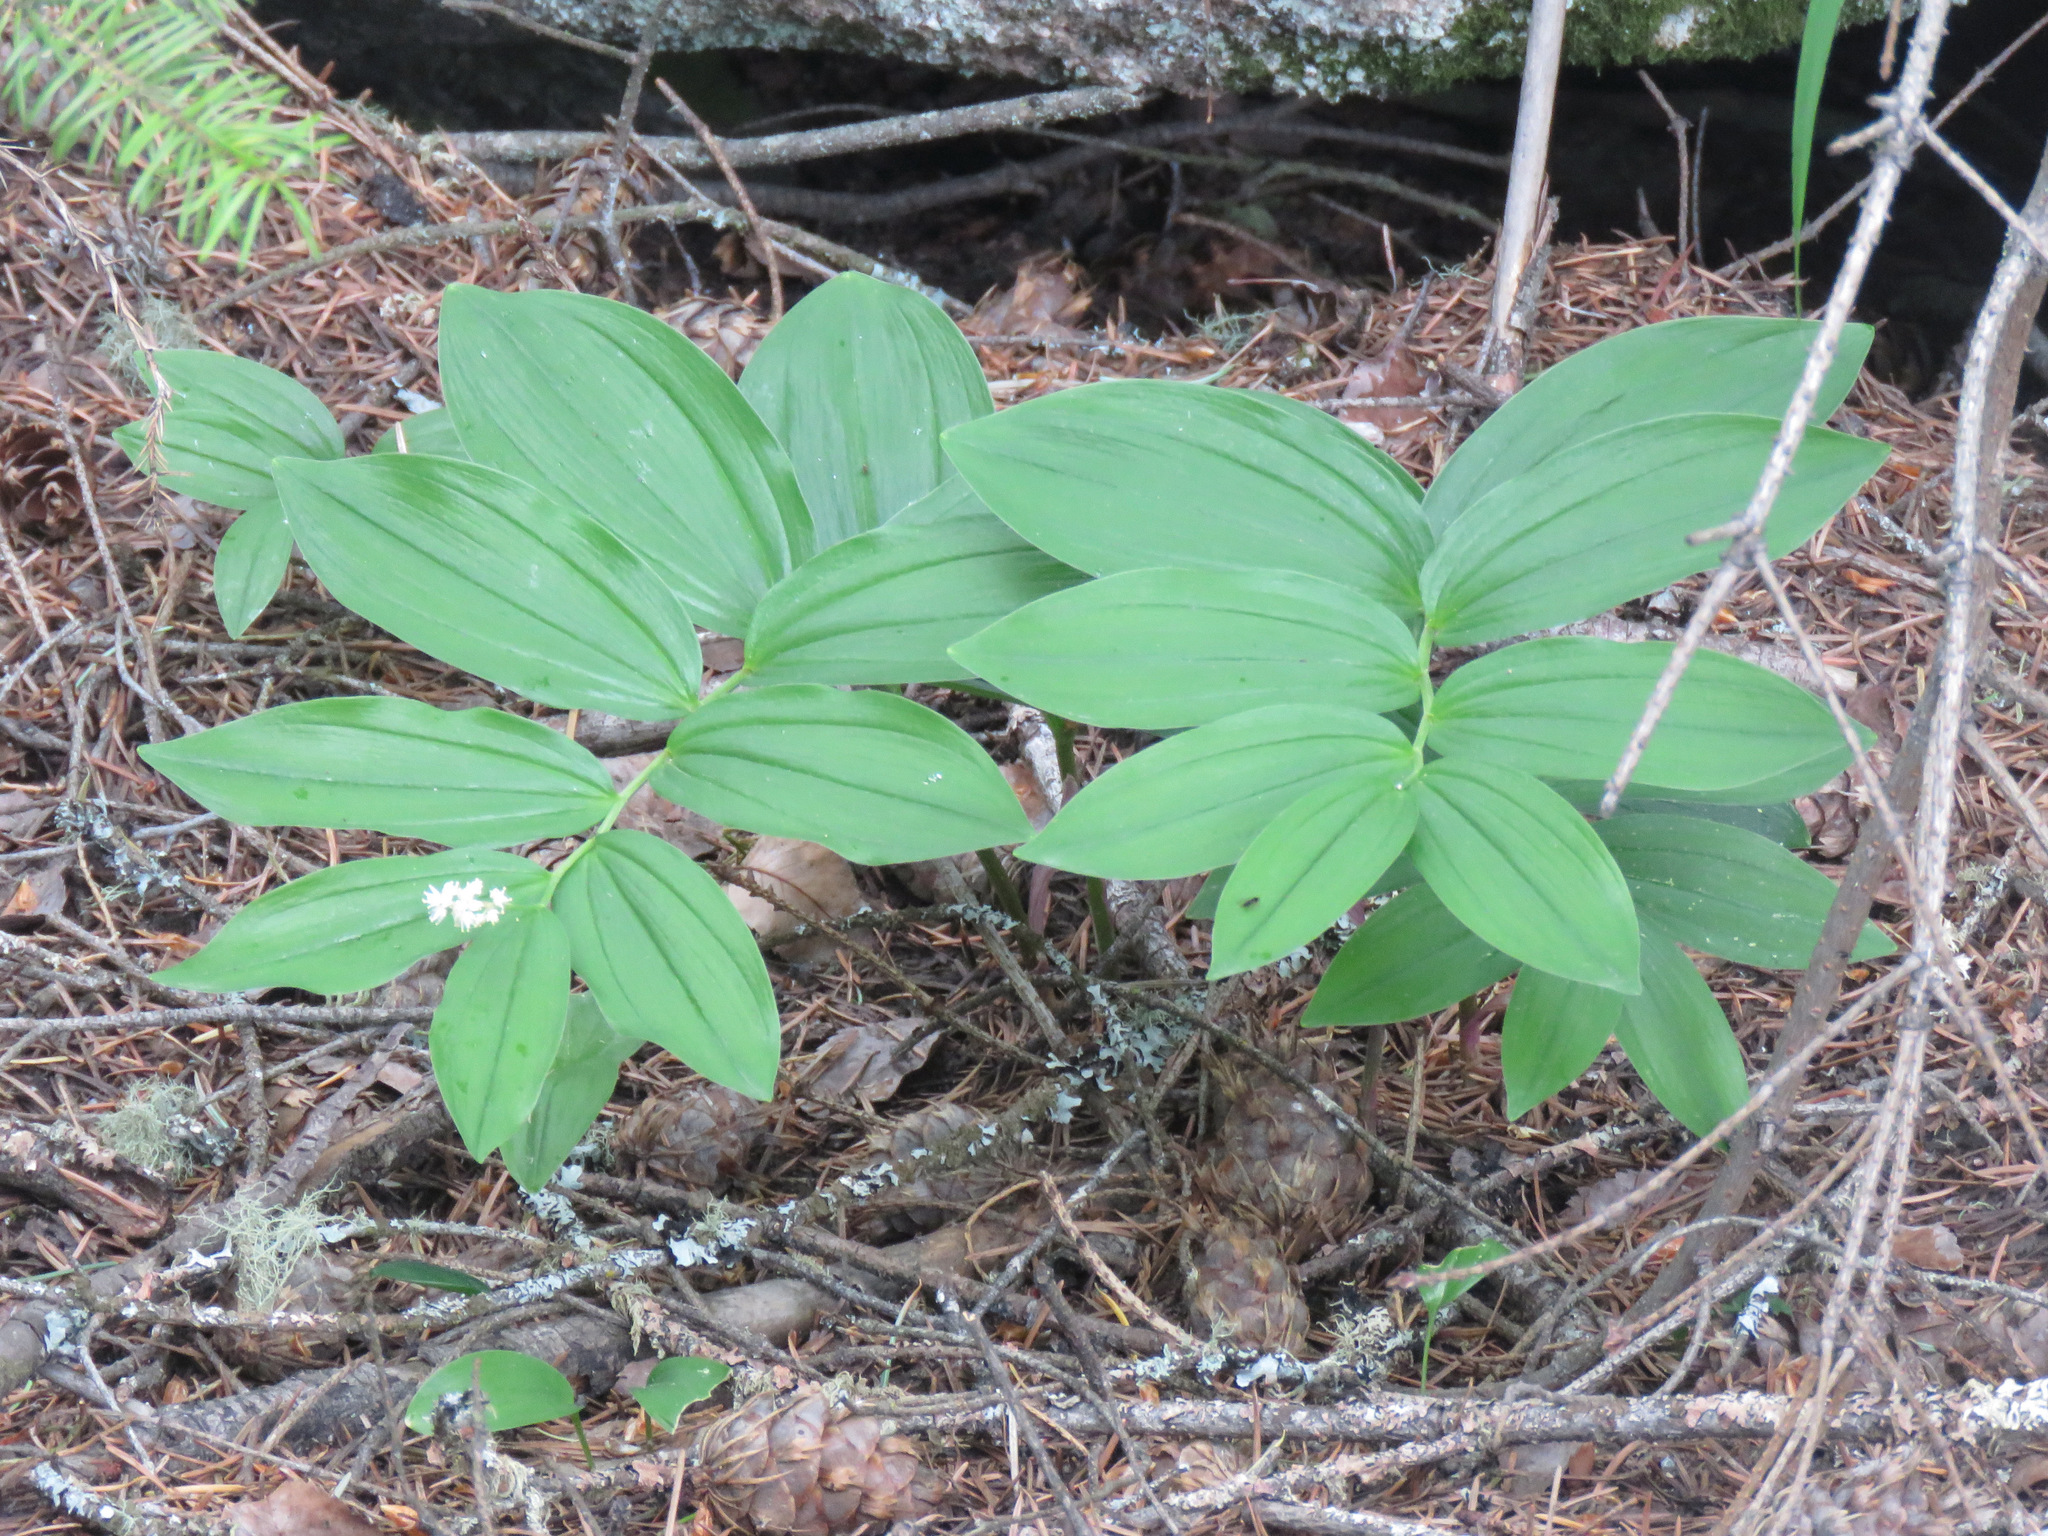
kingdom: Plantae
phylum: Tracheophyta
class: Liliopsida
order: Asparagales
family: Asparagaceae
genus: Maianthemum
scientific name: Maianthemum racemosum
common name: False spikenard
